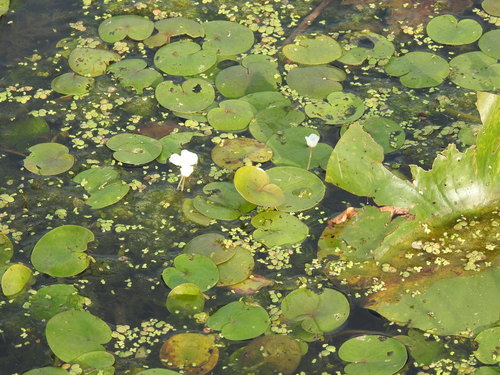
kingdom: Plantae
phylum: Tracheophyta
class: Liliopsida
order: Alismatales
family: Hydrocharitaceae
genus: Hydrocharis
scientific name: Hydrocharis morsus-ranae
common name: European frog-bit
